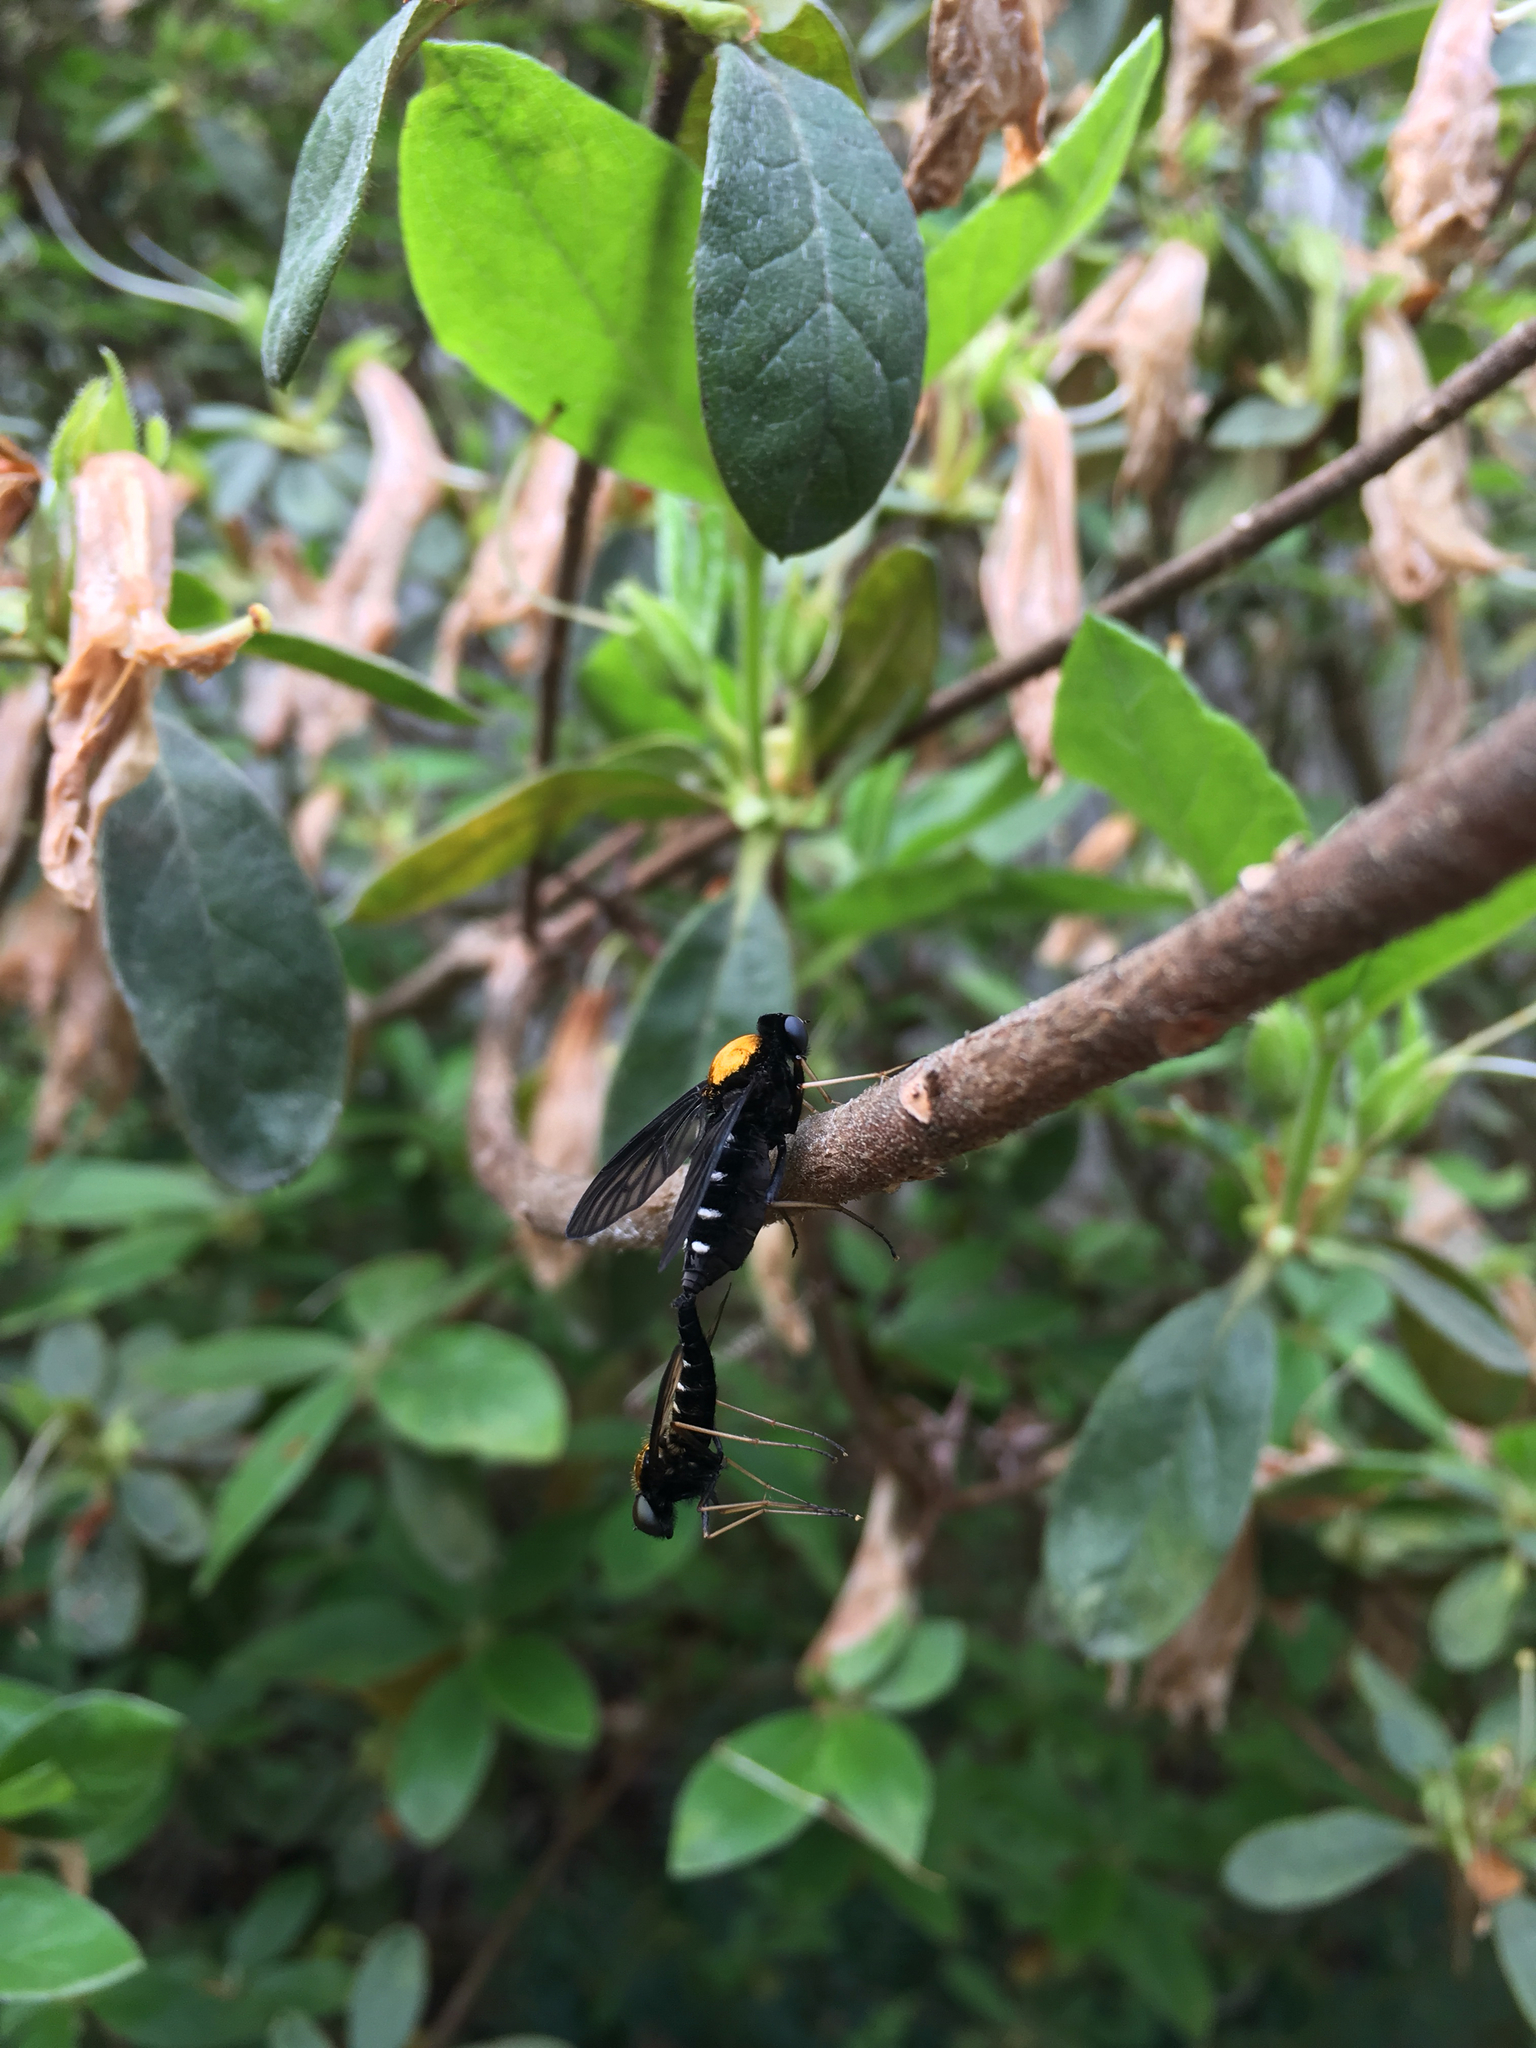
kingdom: Animalia
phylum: Arthropoda
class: Insecta
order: Diptera
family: Rhagionidae
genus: Chrysopilus
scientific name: Chrysopilus thoracicus
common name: Golden-backed snipe fly
